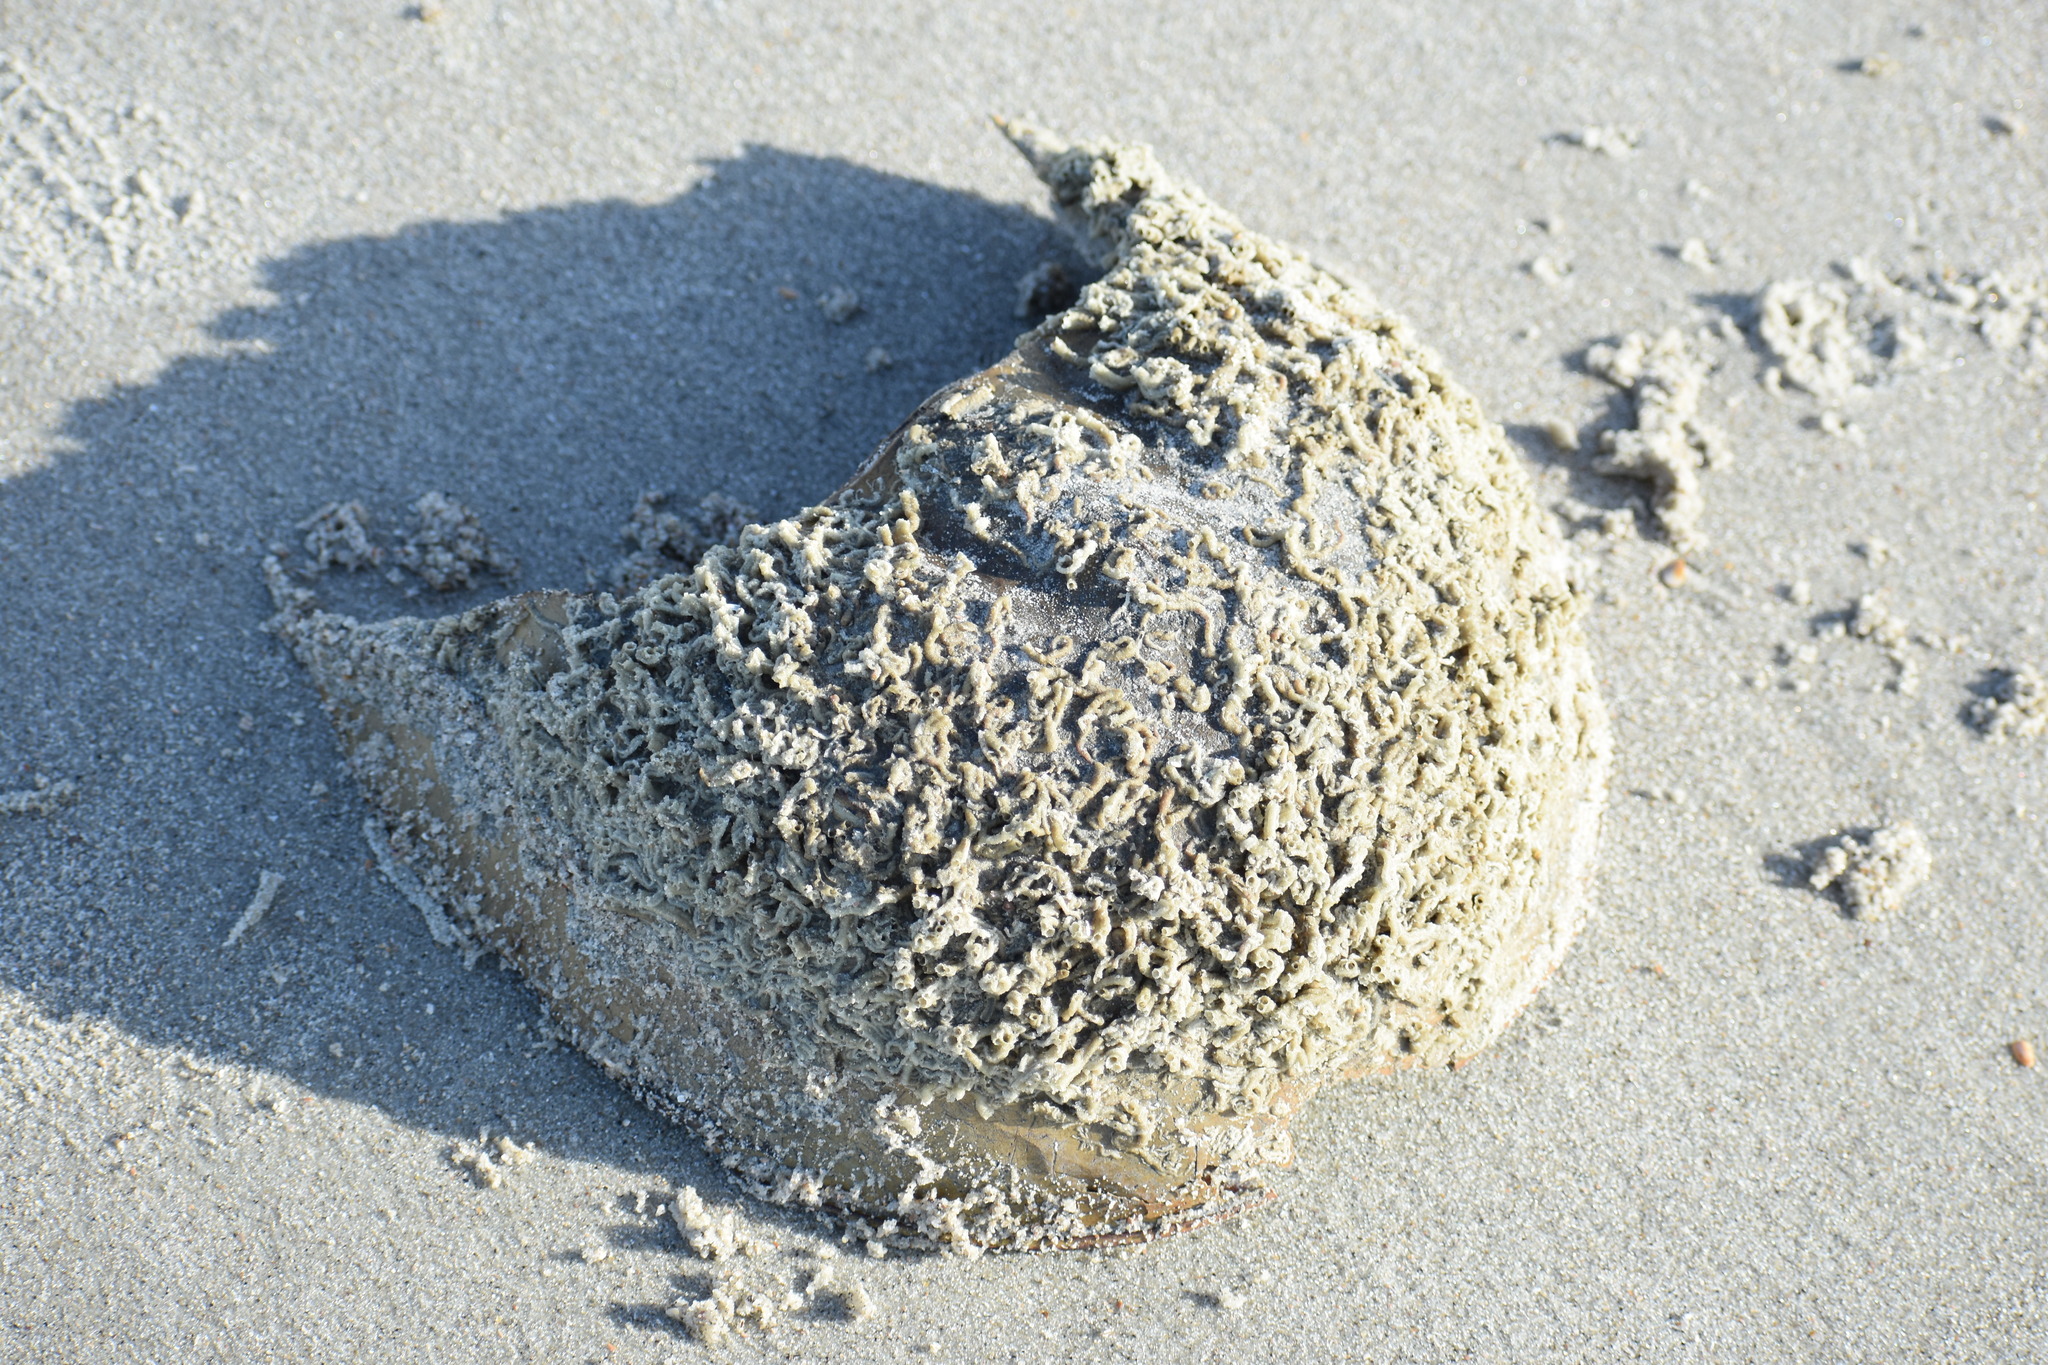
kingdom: Animalia
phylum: Arthropoda
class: Merostomata
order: Xiphosurida
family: Limulidae
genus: Limulus
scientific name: Limulus polyphemus
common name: Horseshoe crab
